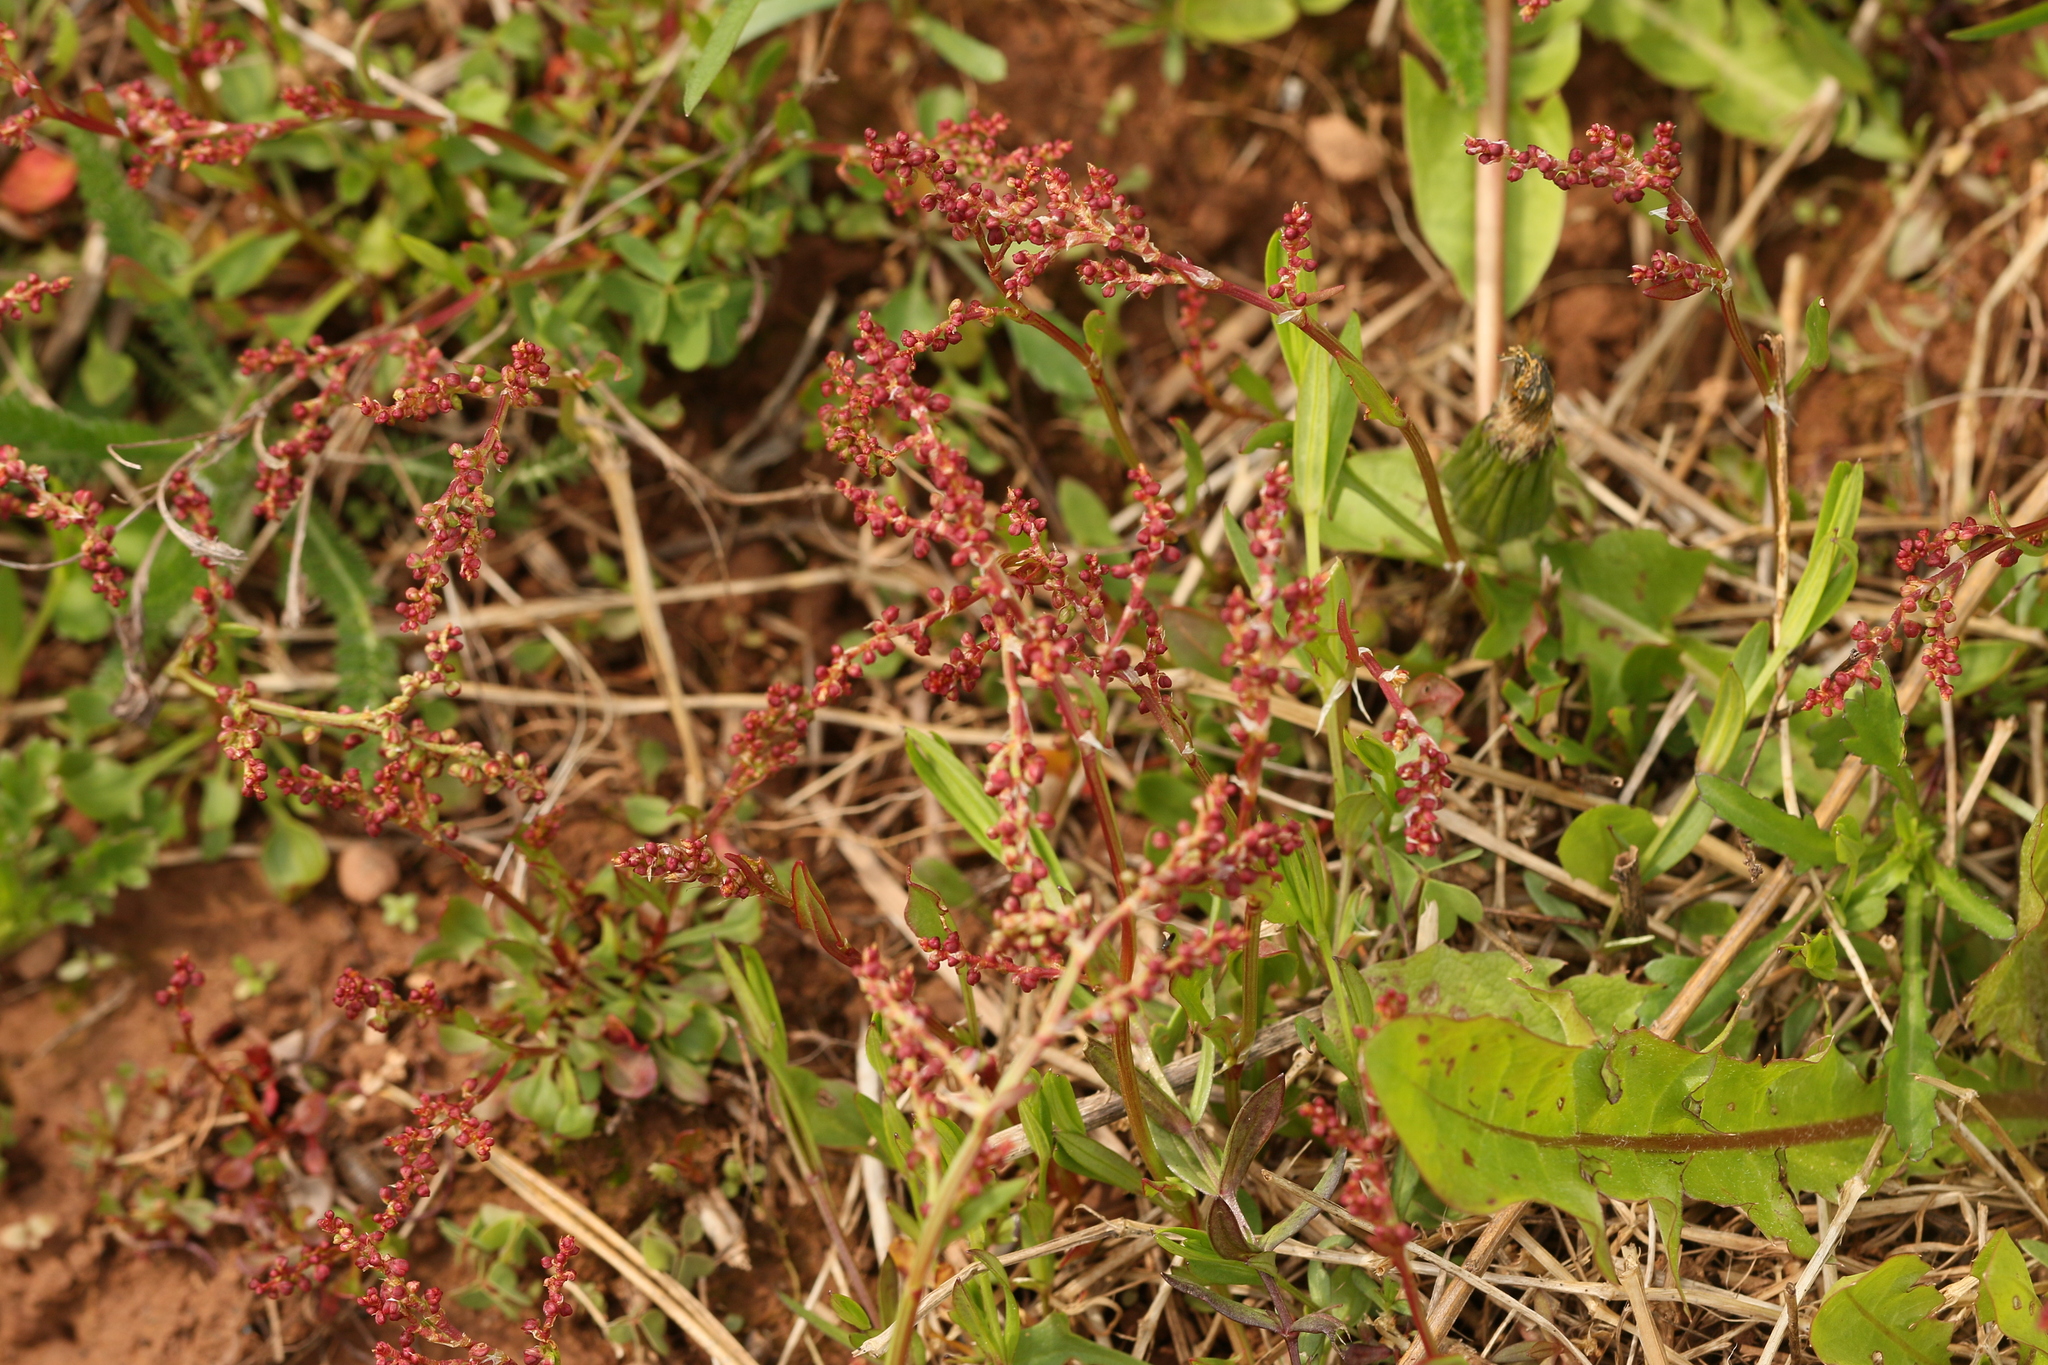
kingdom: Plantae
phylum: Tracheophyta
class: Magnoliopsida
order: Caryophyllales
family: Polygonaceae
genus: Rumex
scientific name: Rumex acetosella
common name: Common sheep sorrel
